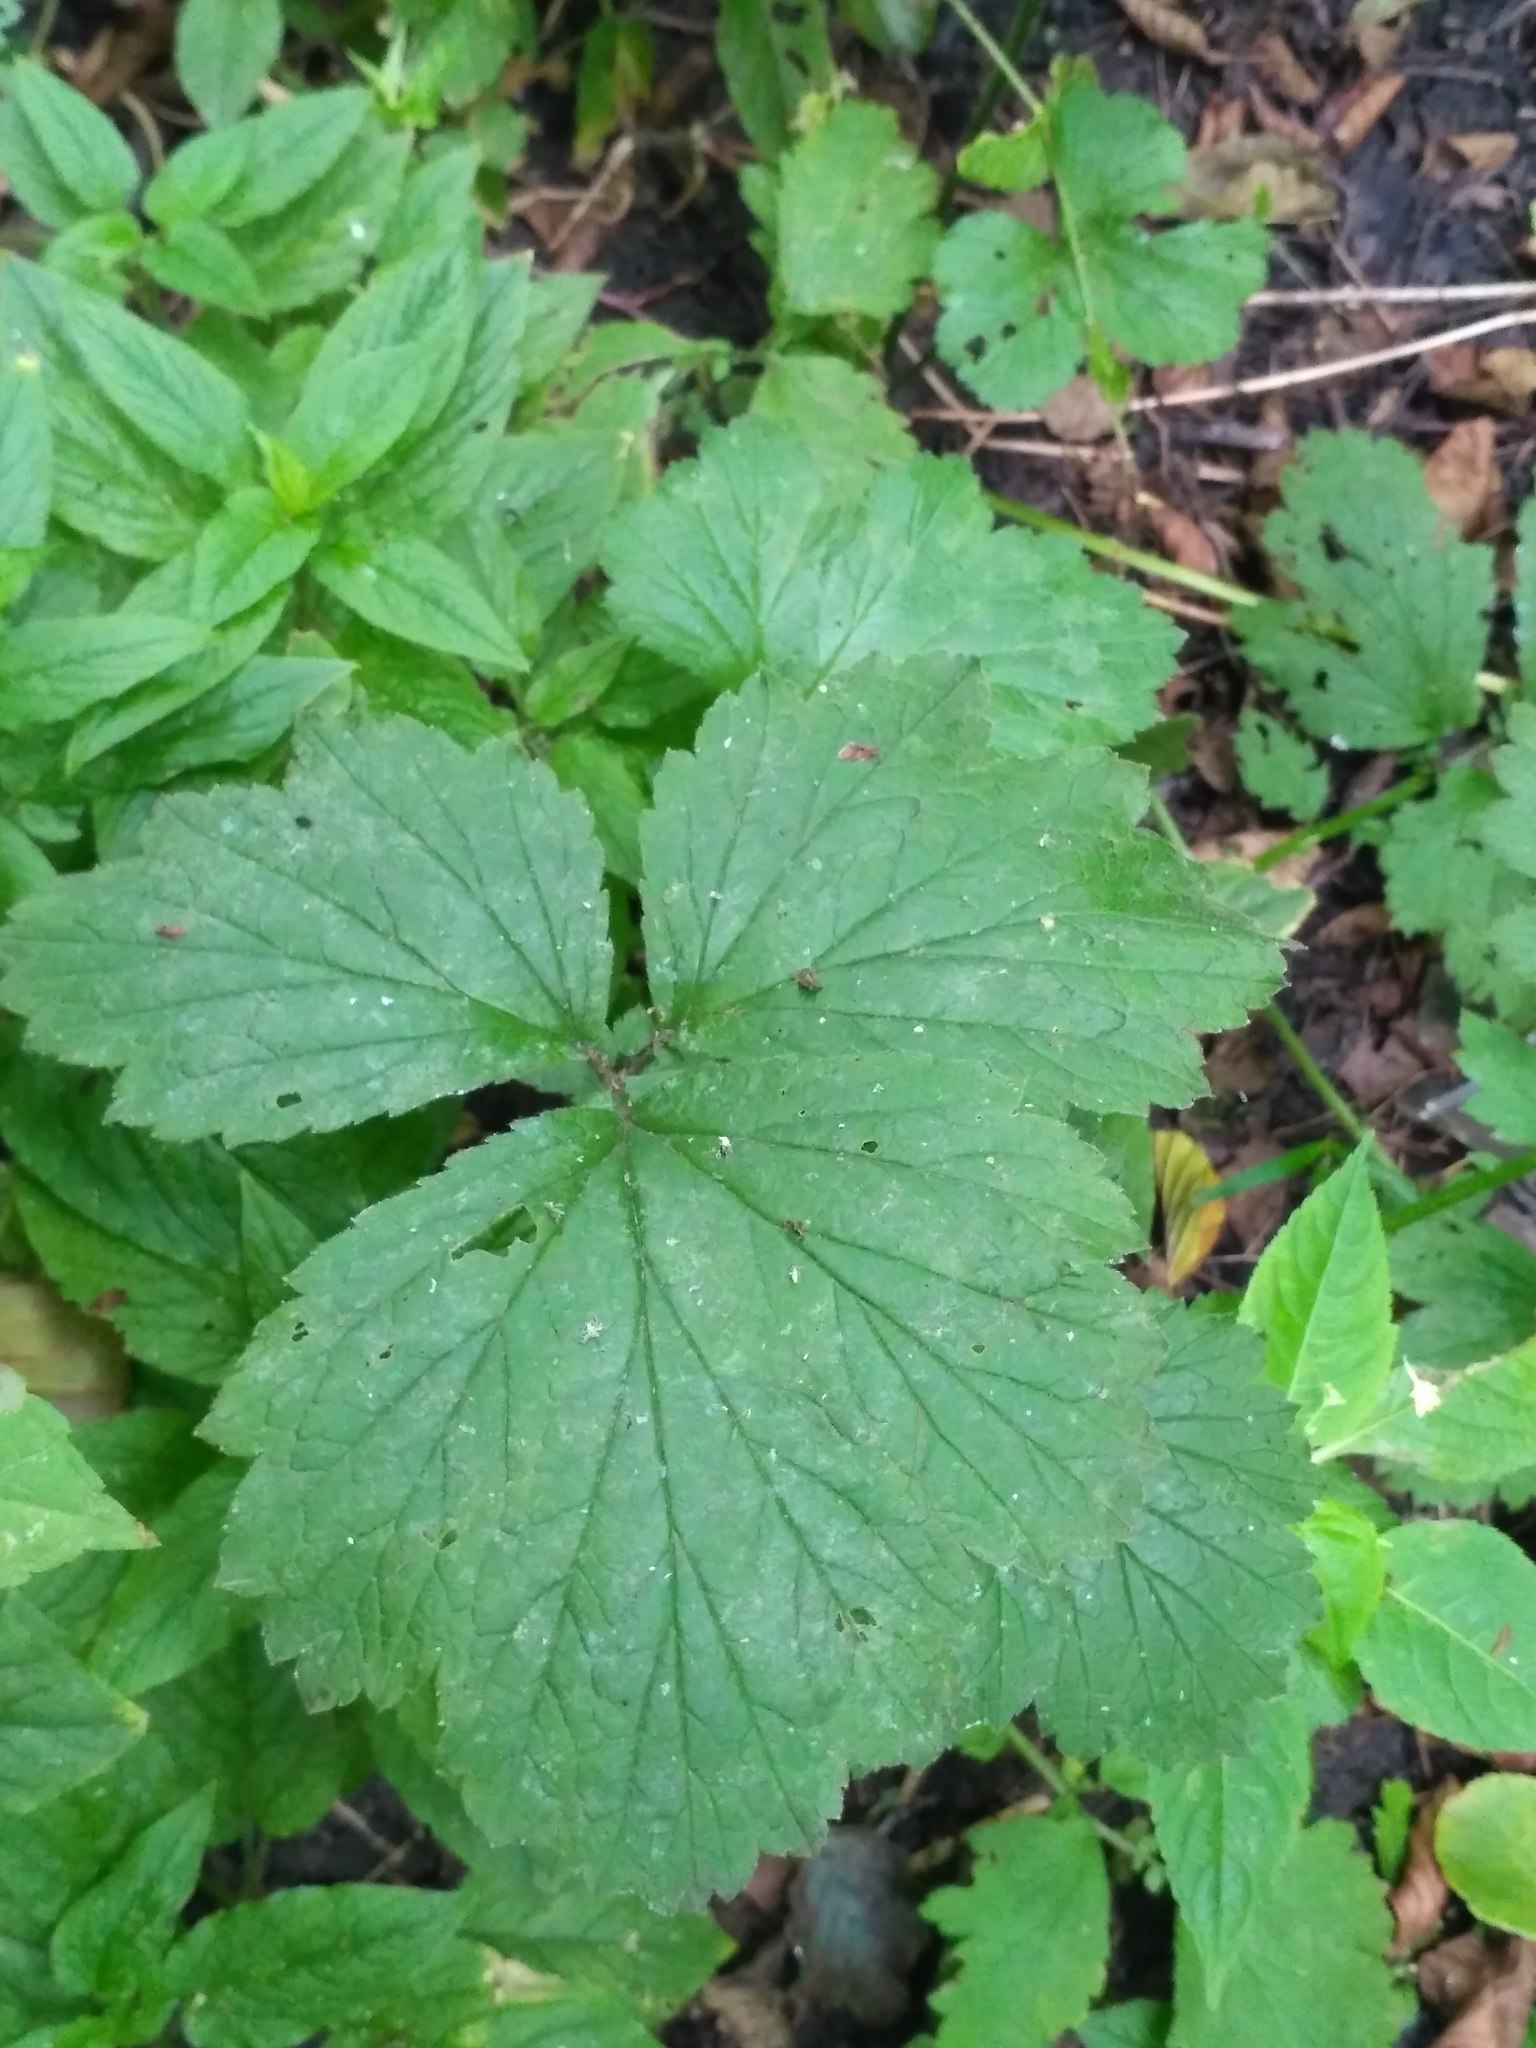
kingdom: Plantae
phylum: Tracheophyta
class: Magnoliopsida
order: Rosales
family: Rosaceae
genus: Geum
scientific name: Geum urbanum
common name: Wood avens
